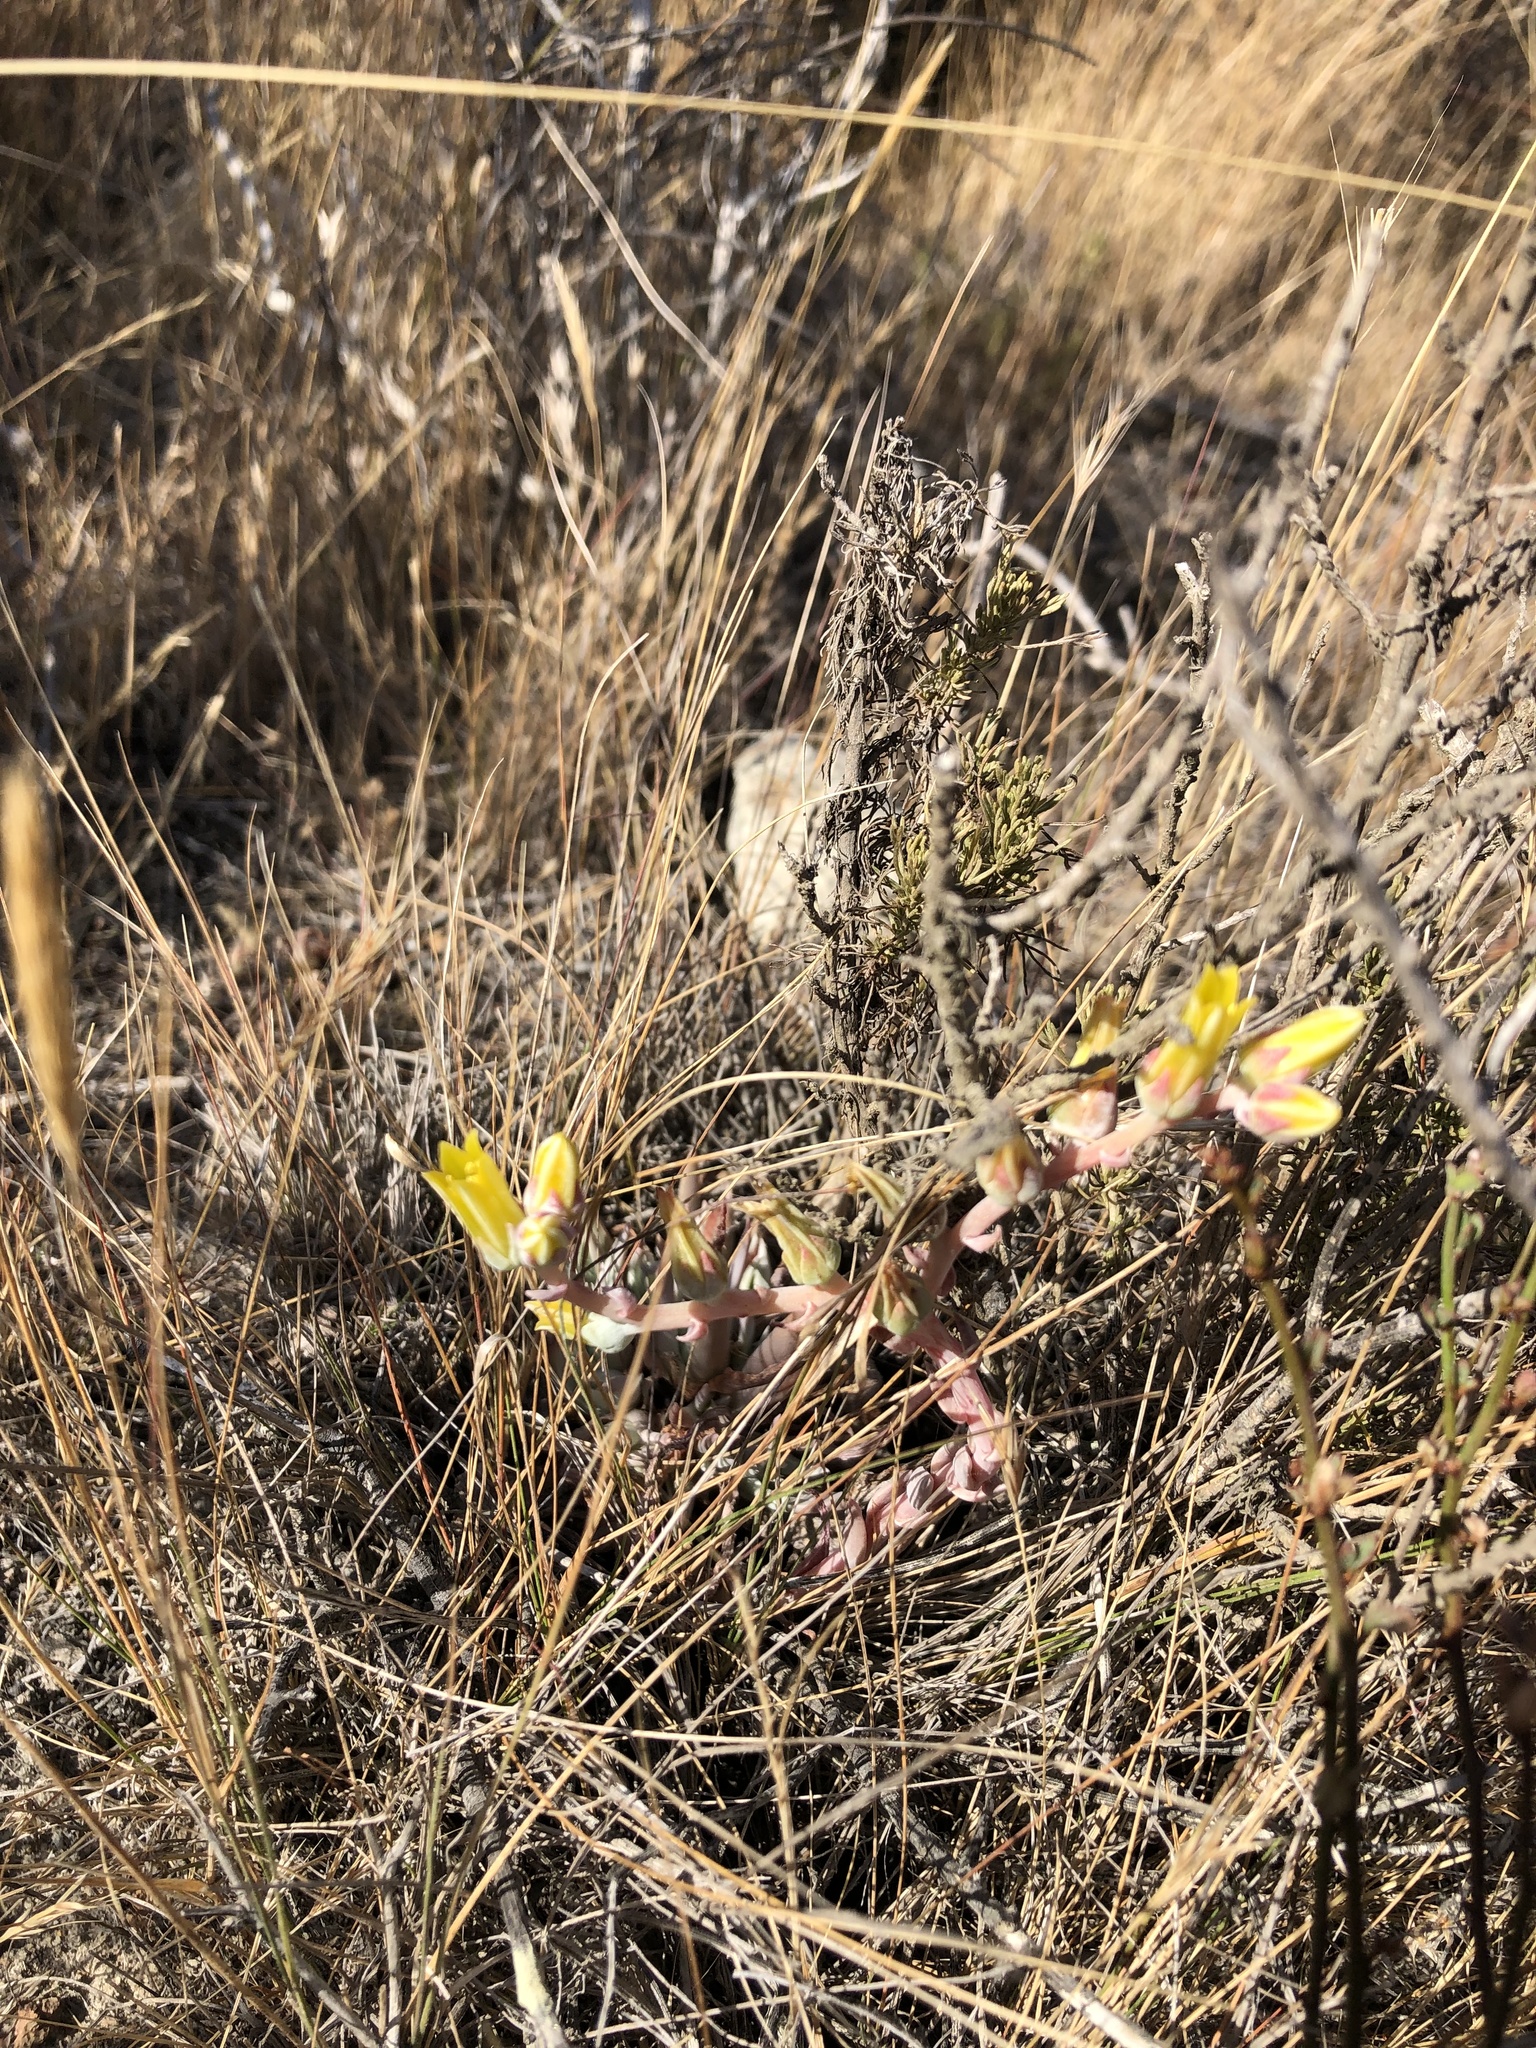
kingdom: Plantae
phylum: Tracheophyta
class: Magnoliopsida
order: Saxifragales
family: Crassulaceae
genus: Dudleya
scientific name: Dudleya lanceolata
